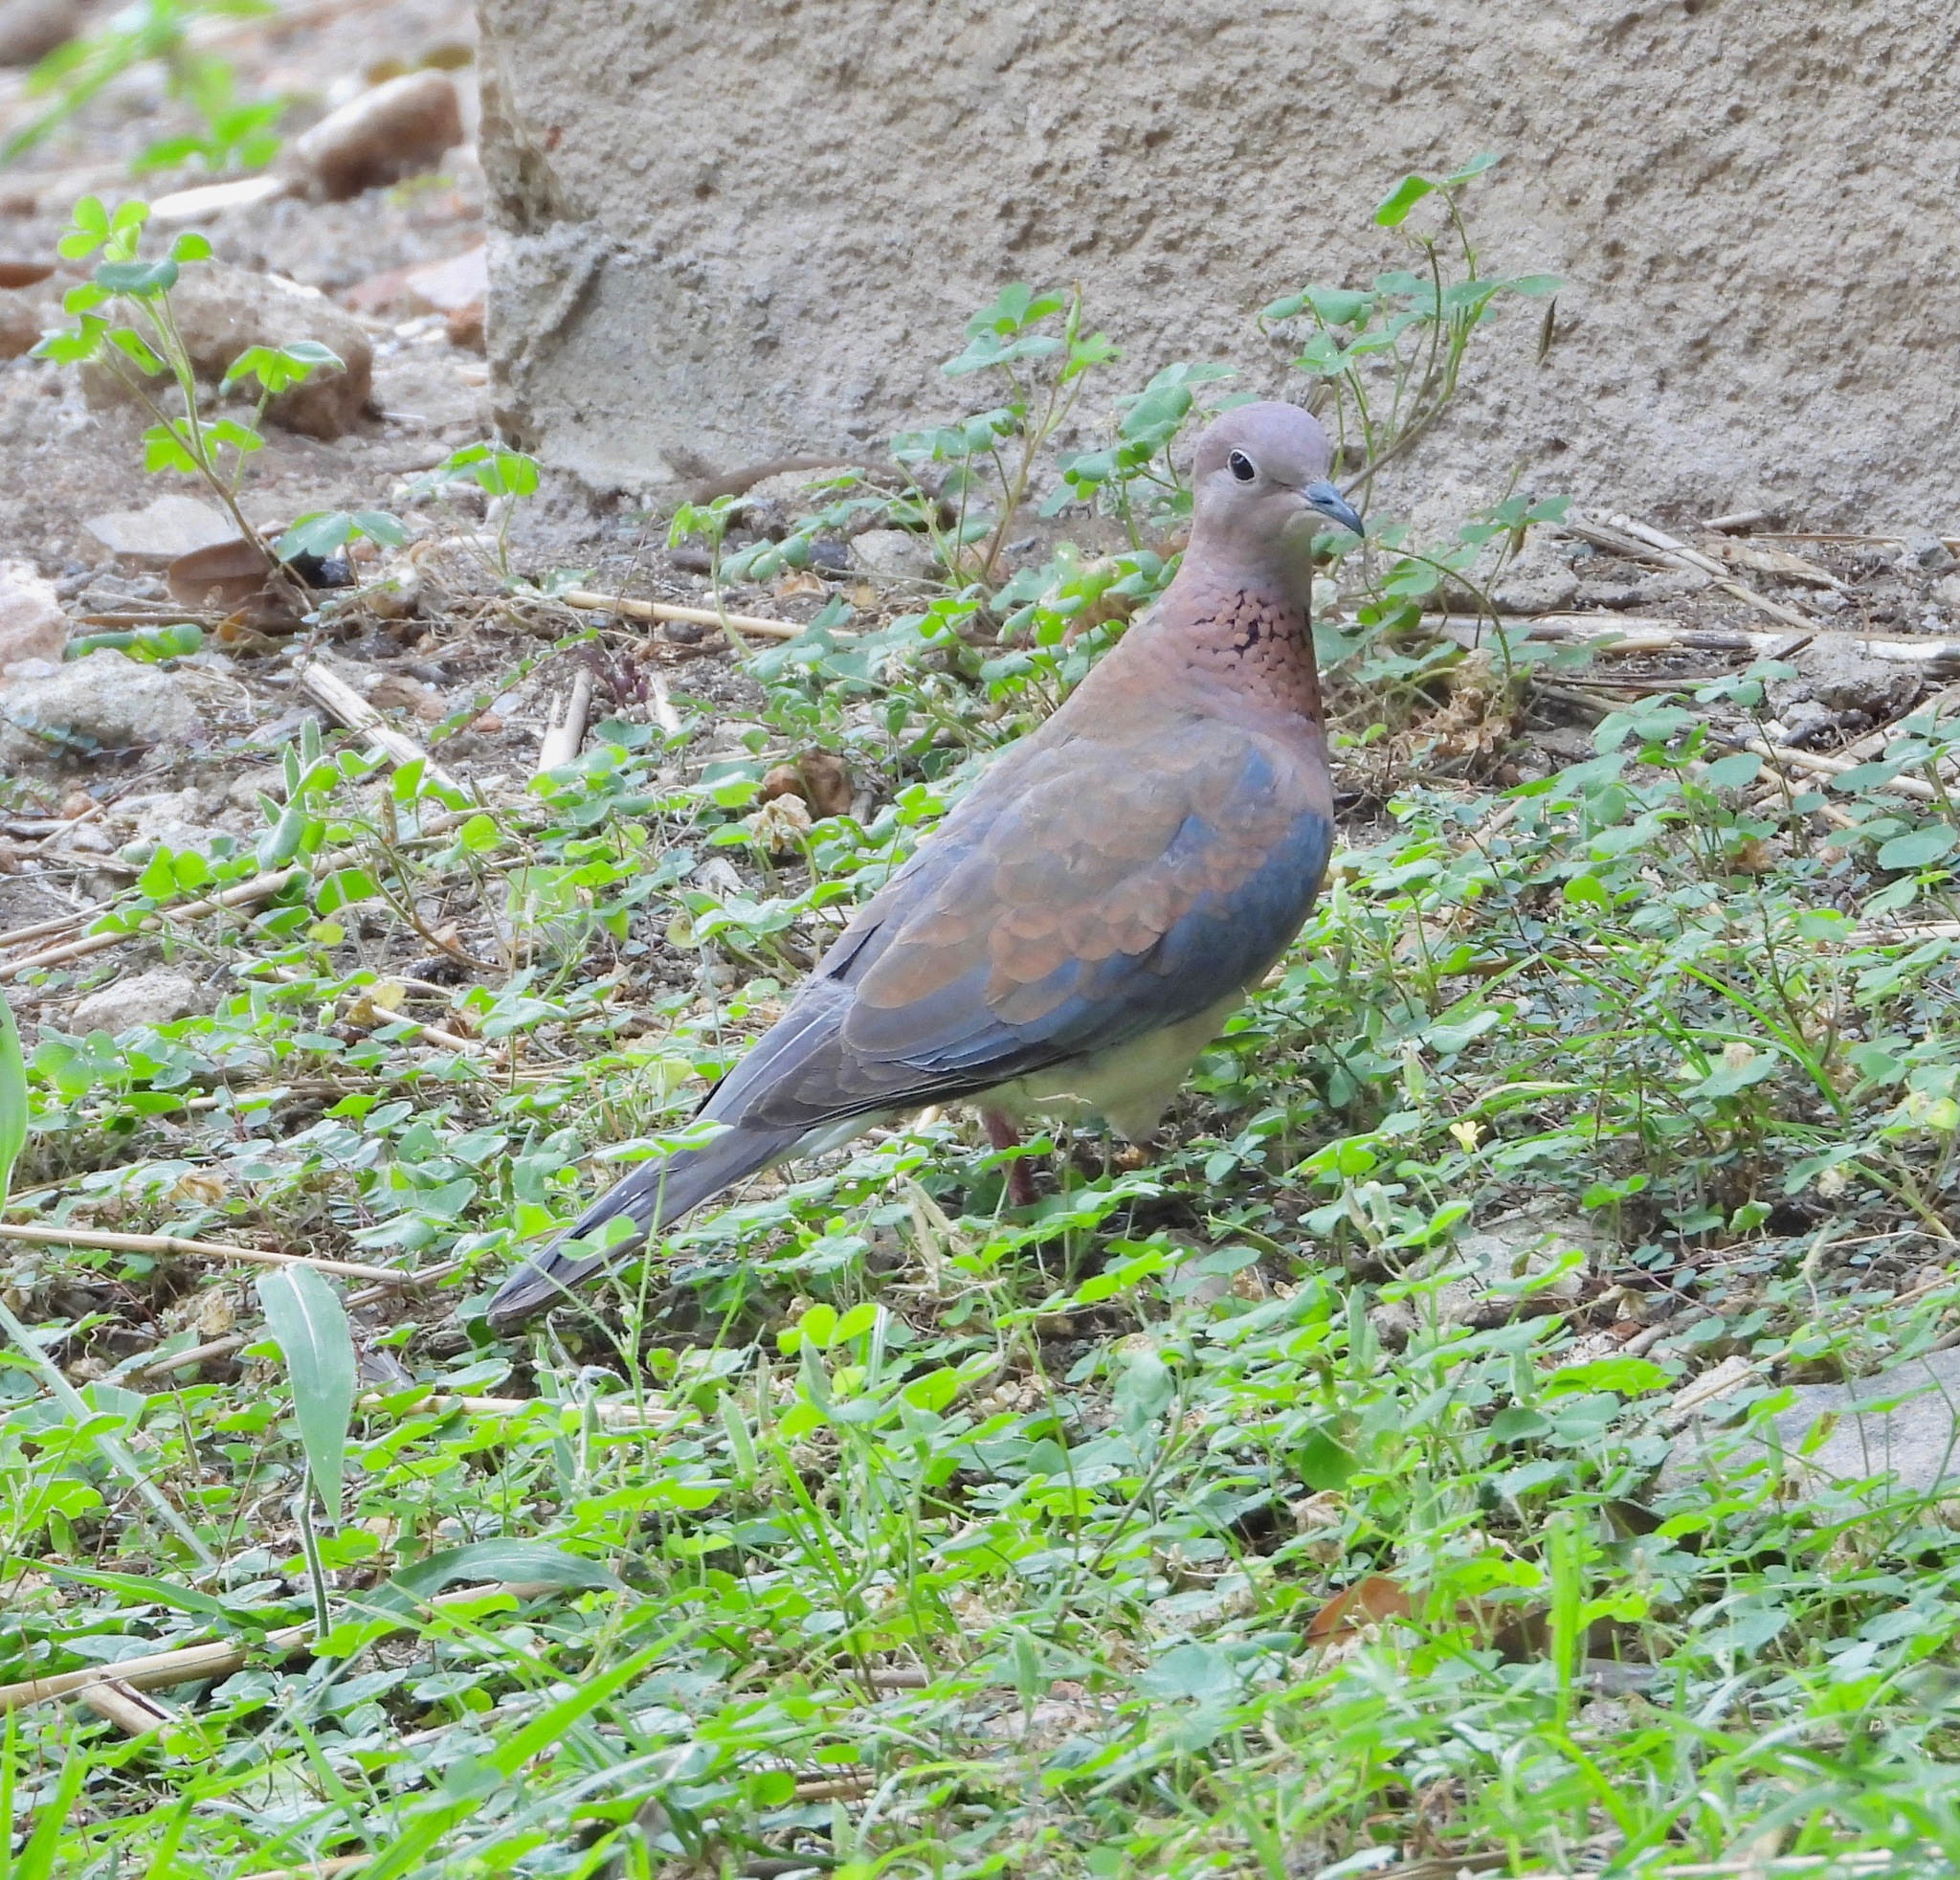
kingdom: Animalia
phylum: Chordata
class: Aves
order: Columbiformes
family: Columbidae
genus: Spilopelia
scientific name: Spilopelia senegalensis
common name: Laughing dove
